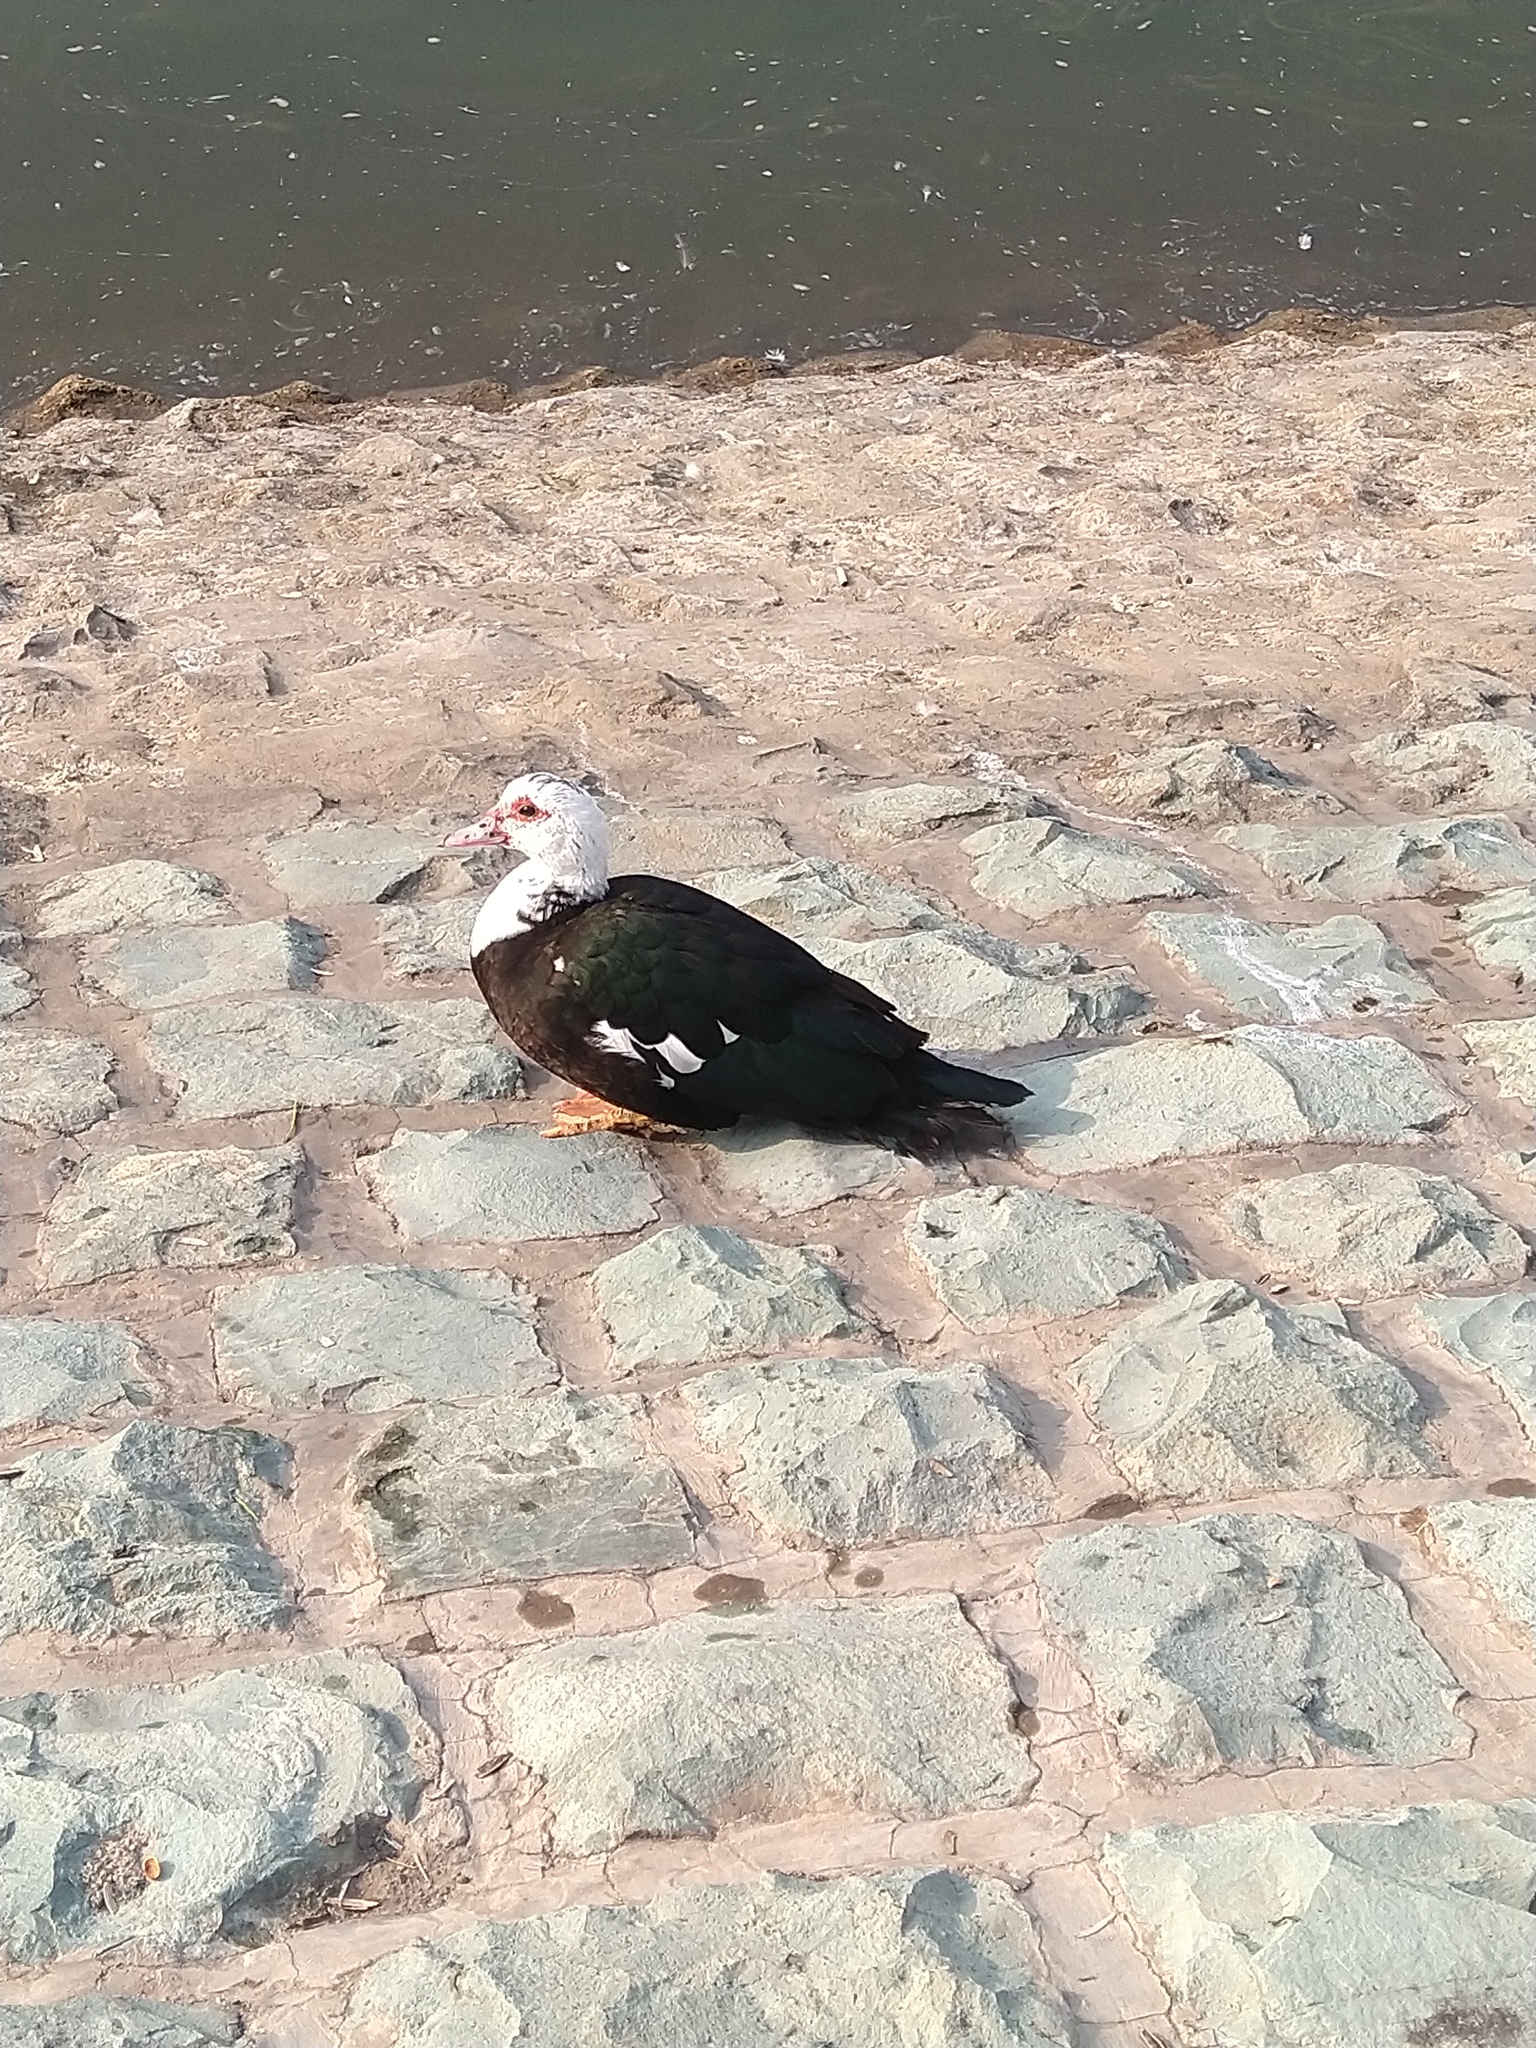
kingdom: Animalia
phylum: Chordata
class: Aves
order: Anseriformes
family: Anatidae
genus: Cairina
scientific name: Cairina moschata
